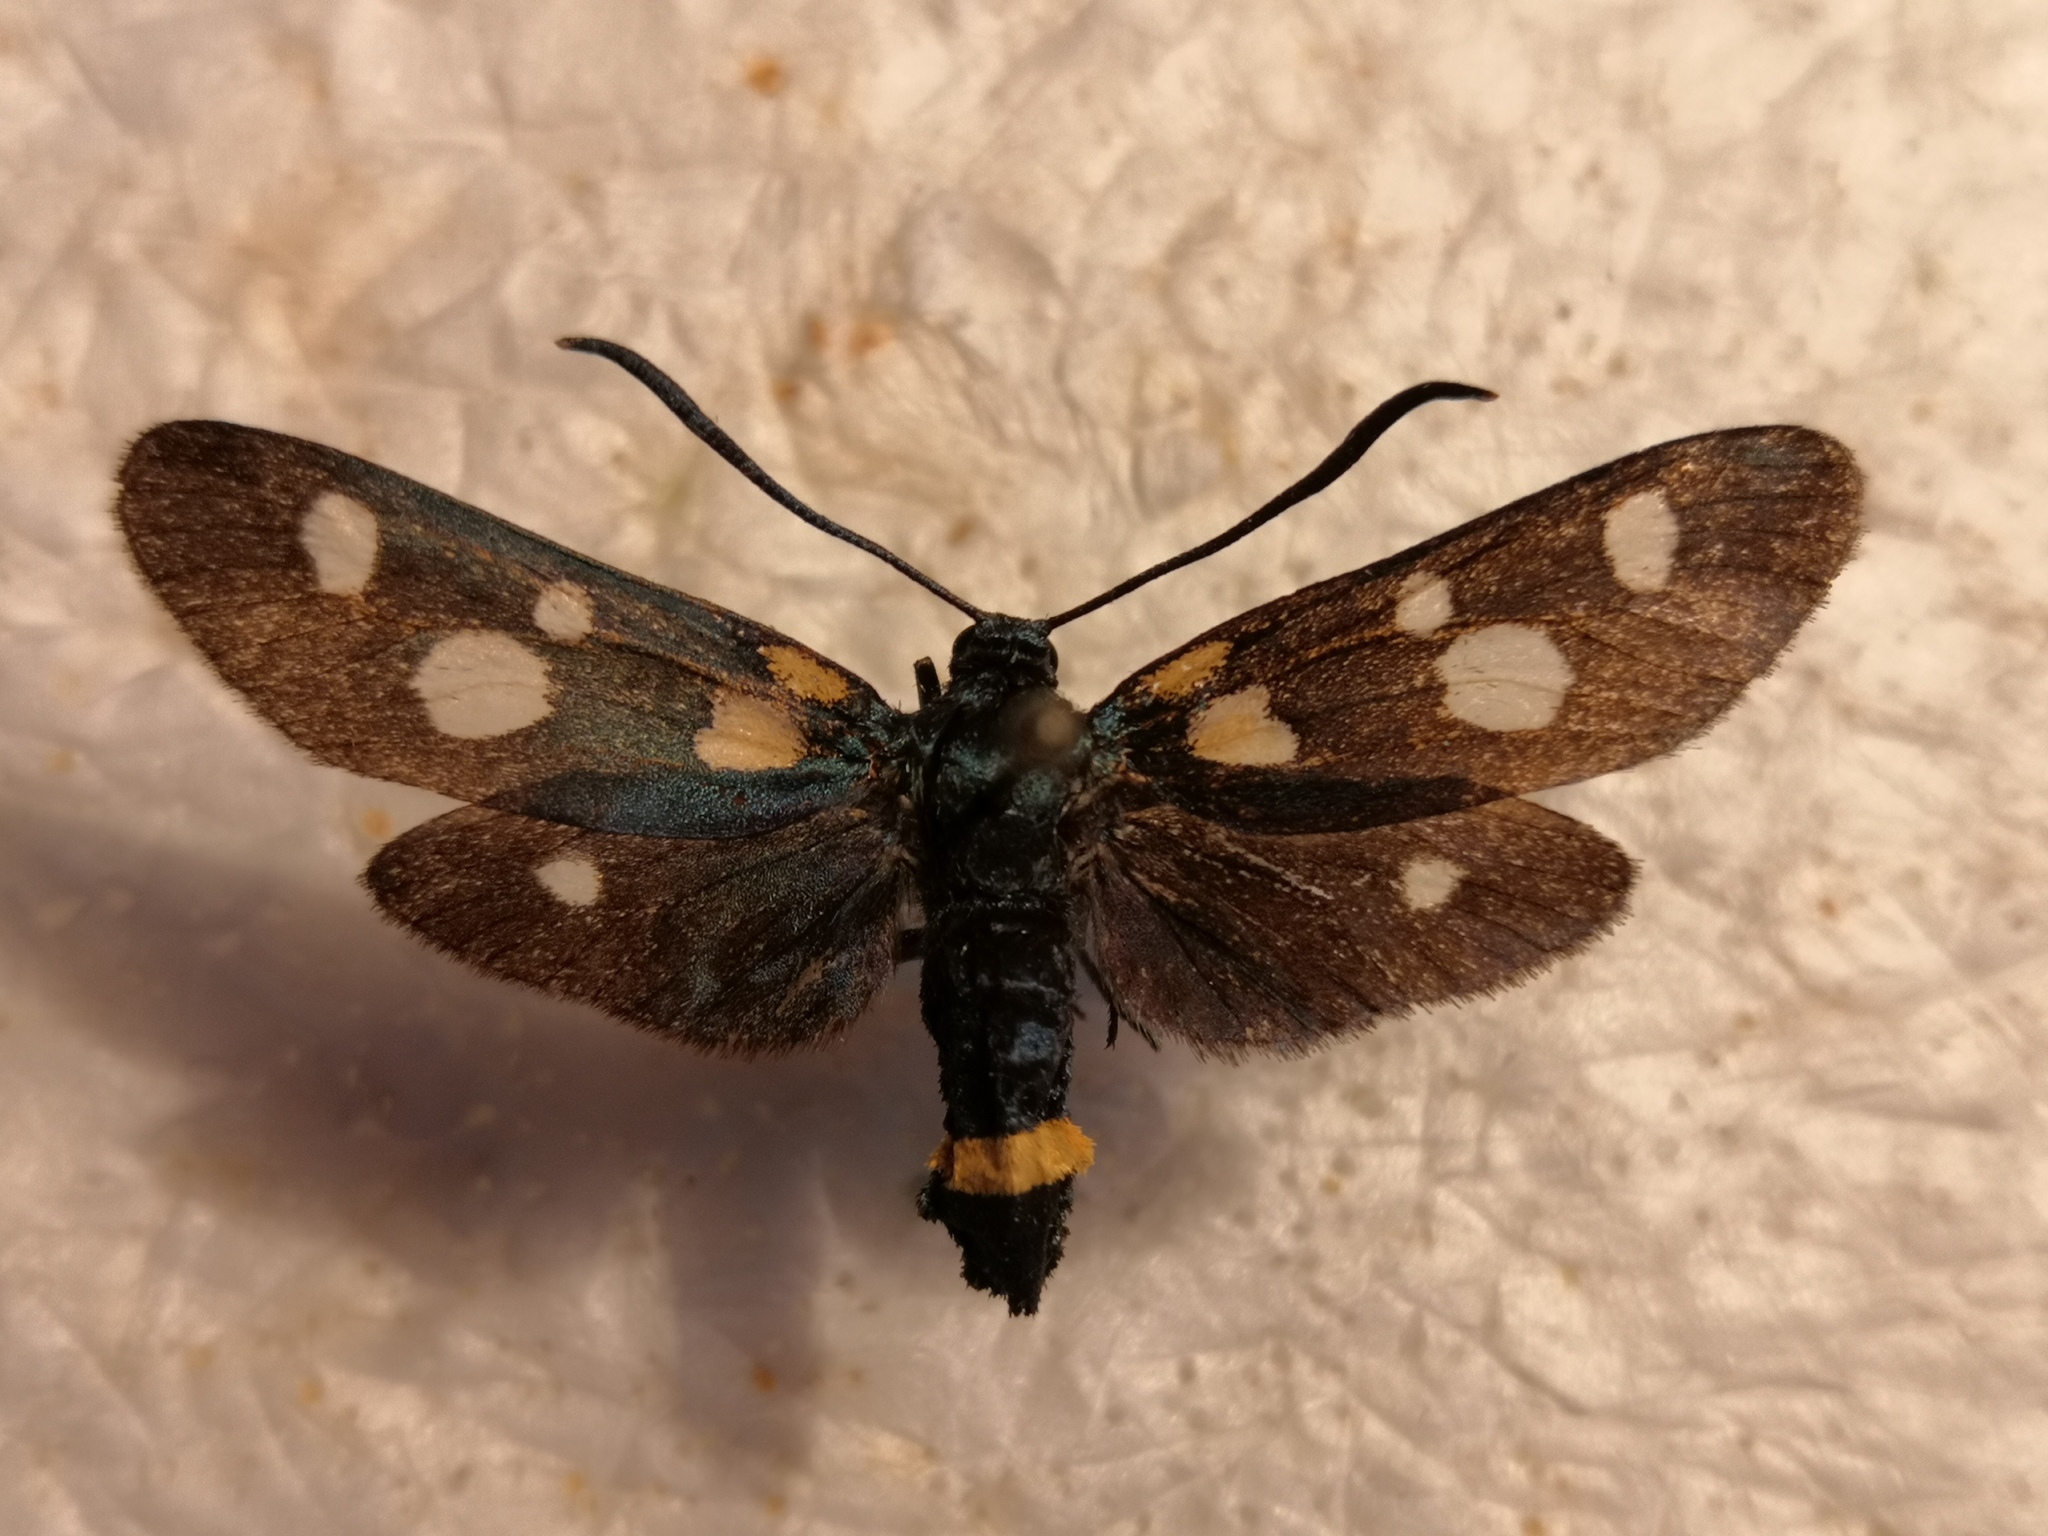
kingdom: Animalia
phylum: Arthropoda
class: Insecta
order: Lepidoptera
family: Zygaenidae
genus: Zygaena
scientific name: Zygaena ephialtes
